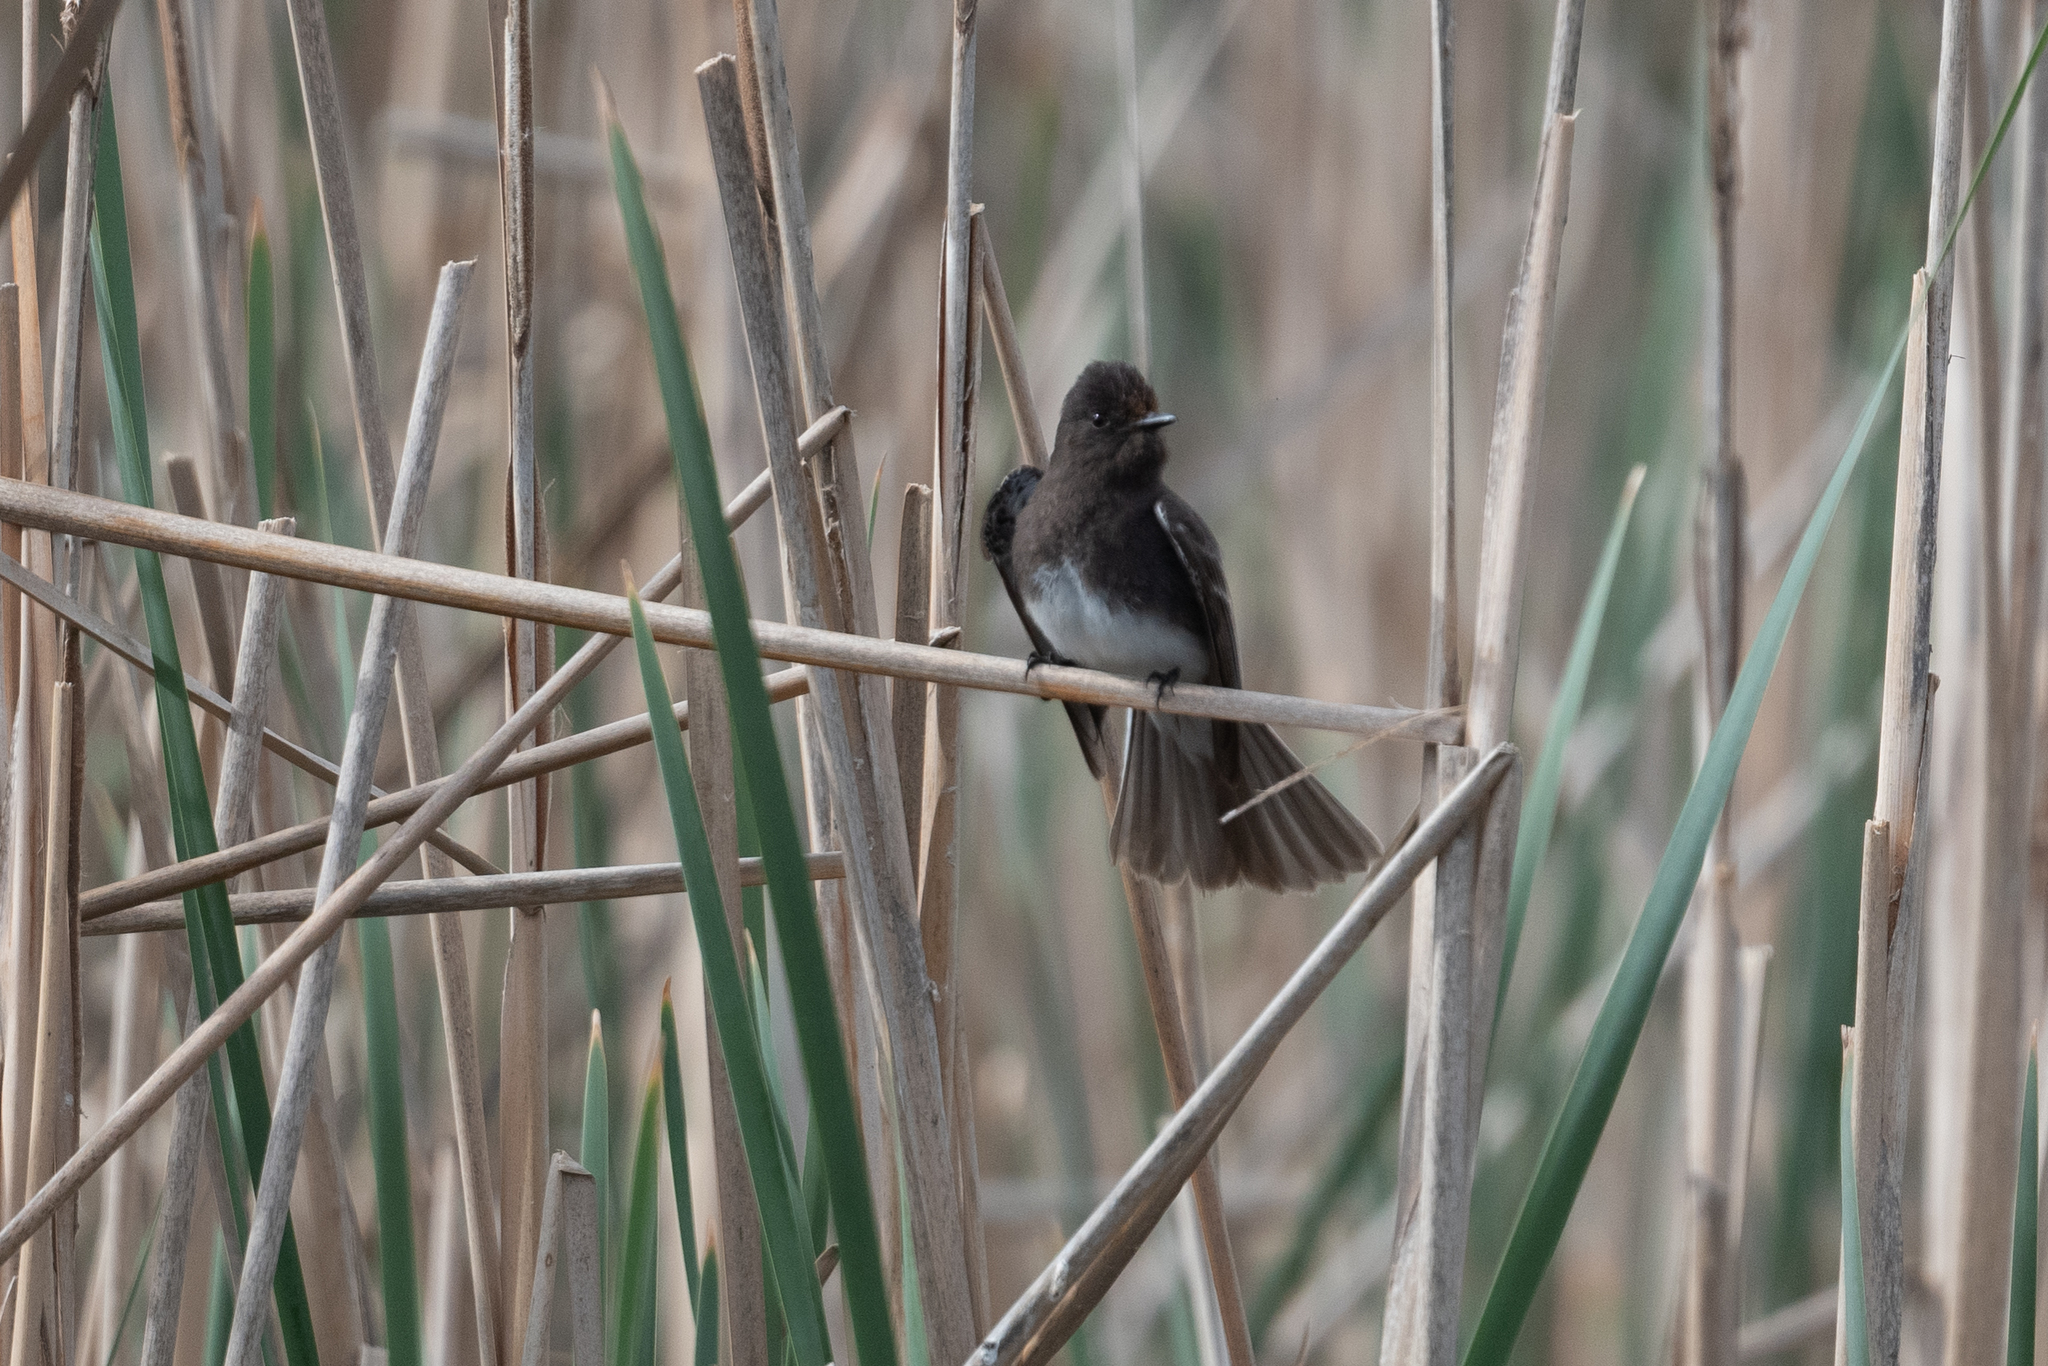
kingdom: Animalia
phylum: Chordata
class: Aves
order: Passeriformes
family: Tyrannidae
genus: Sayornis
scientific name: Sayornis nigricans
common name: Black phoebe
